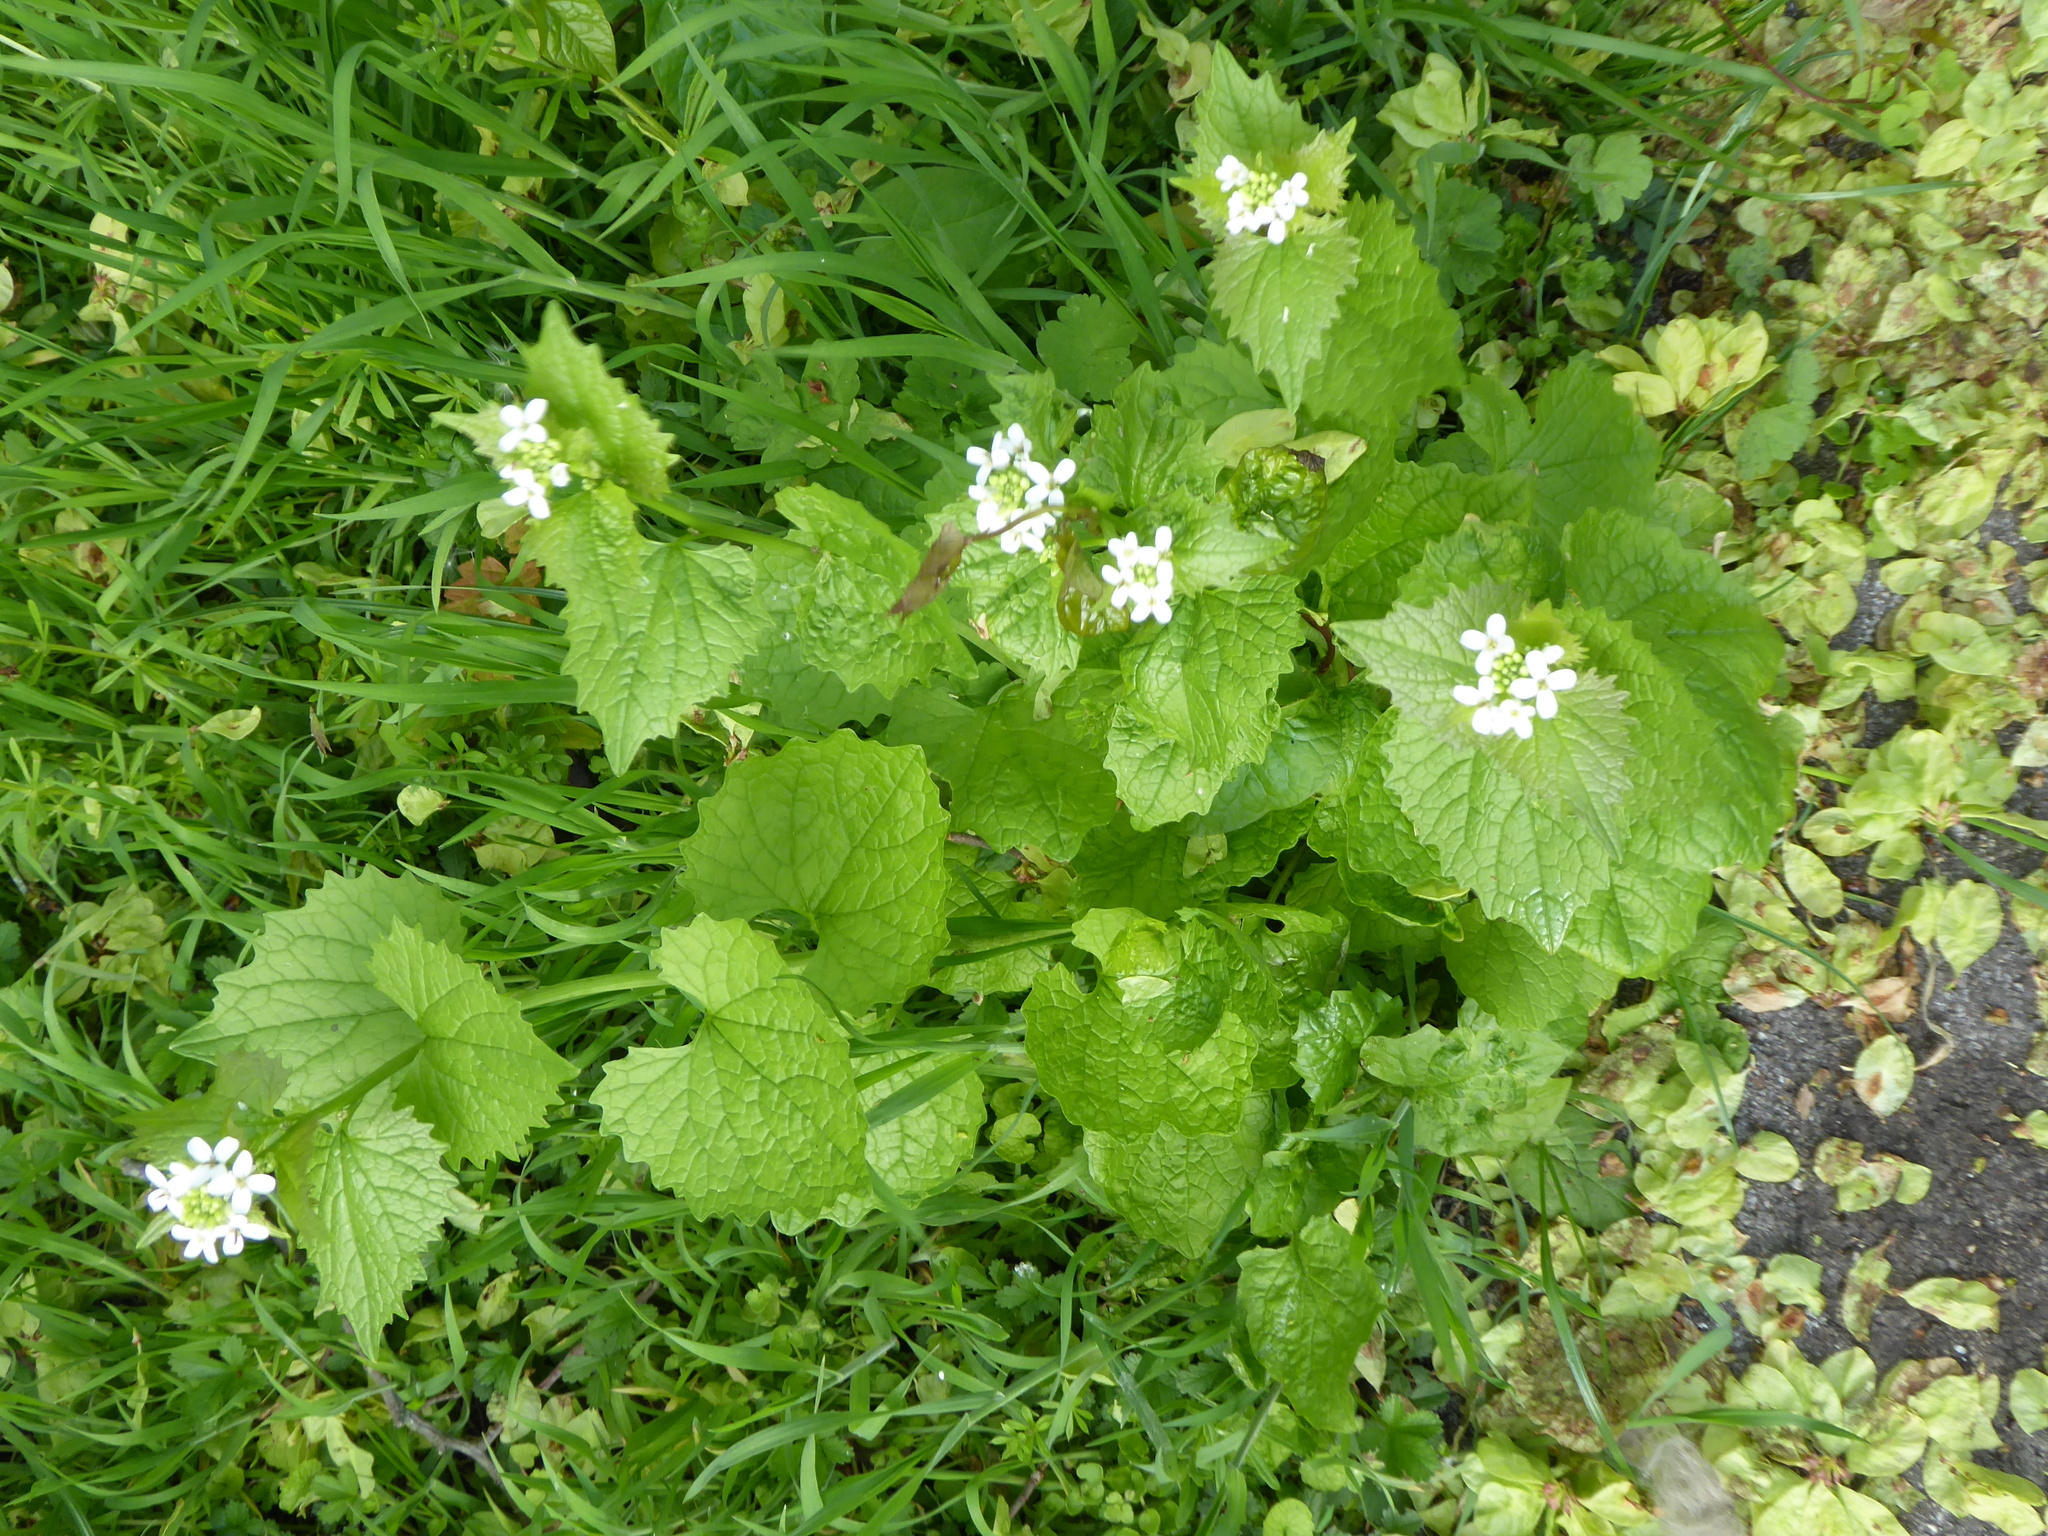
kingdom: Plantae
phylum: Tracheophyta
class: Magnoliopsida
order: Brassicales
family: Brassicaceae
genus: Alliaria
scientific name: Alliaria petiolata
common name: Garlic mustard
